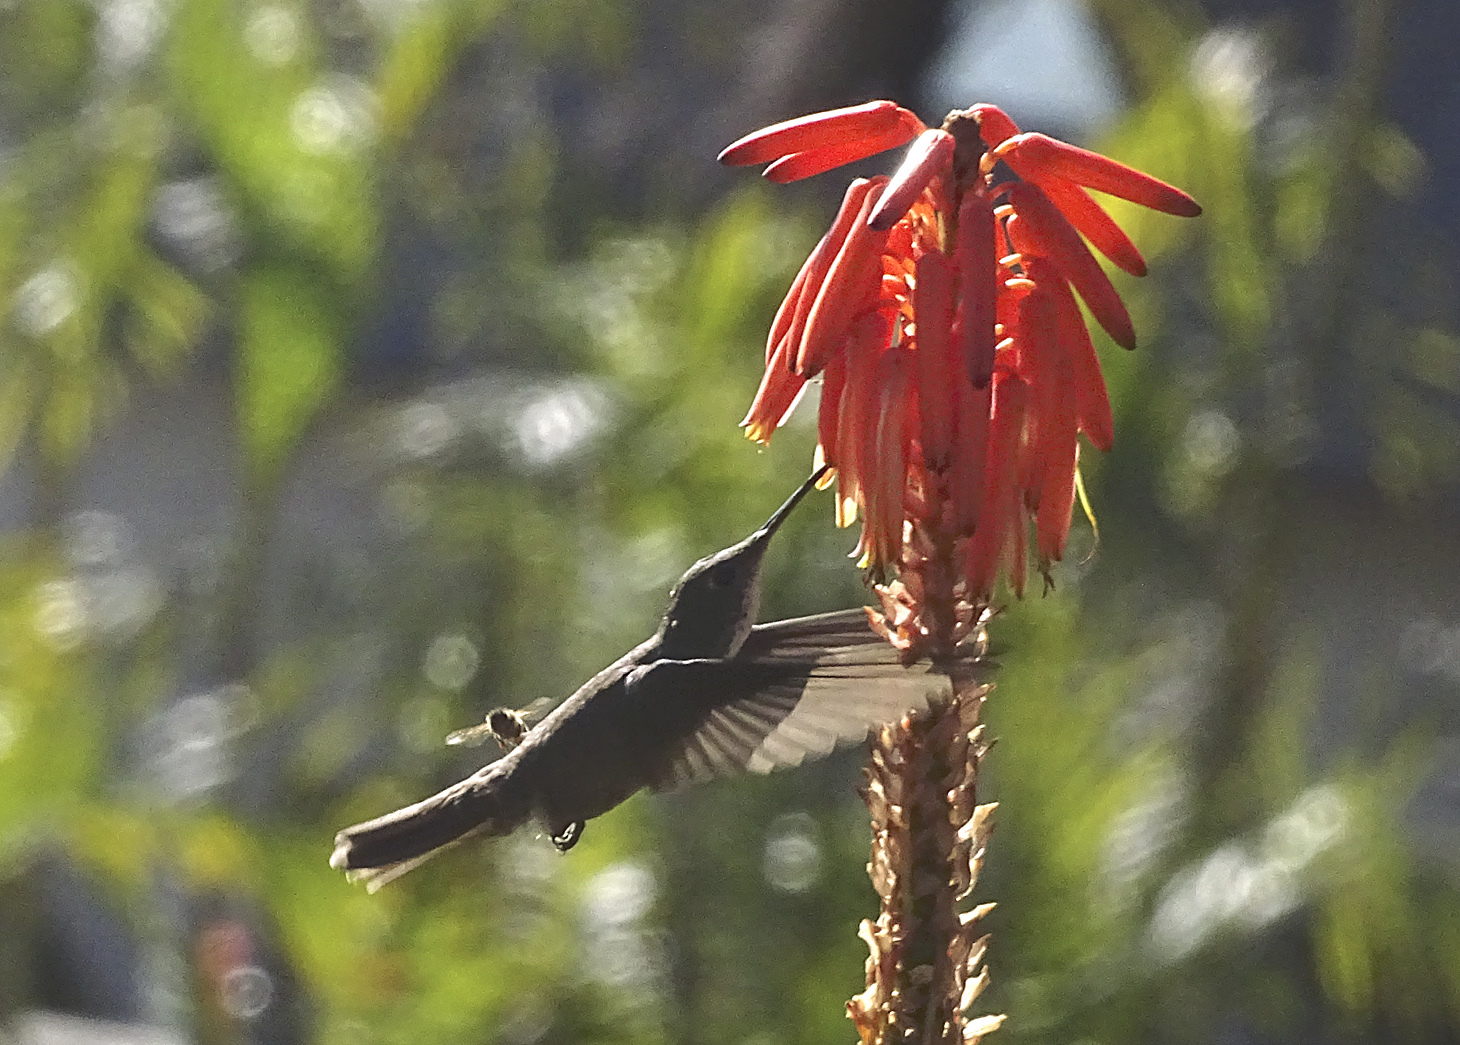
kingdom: Animalia
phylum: Chordata
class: Aves
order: Apodiformes
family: Trochilidae
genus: Saucerottia
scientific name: Saucerottia cyanocephala
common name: Azure-crowned hummingbird
